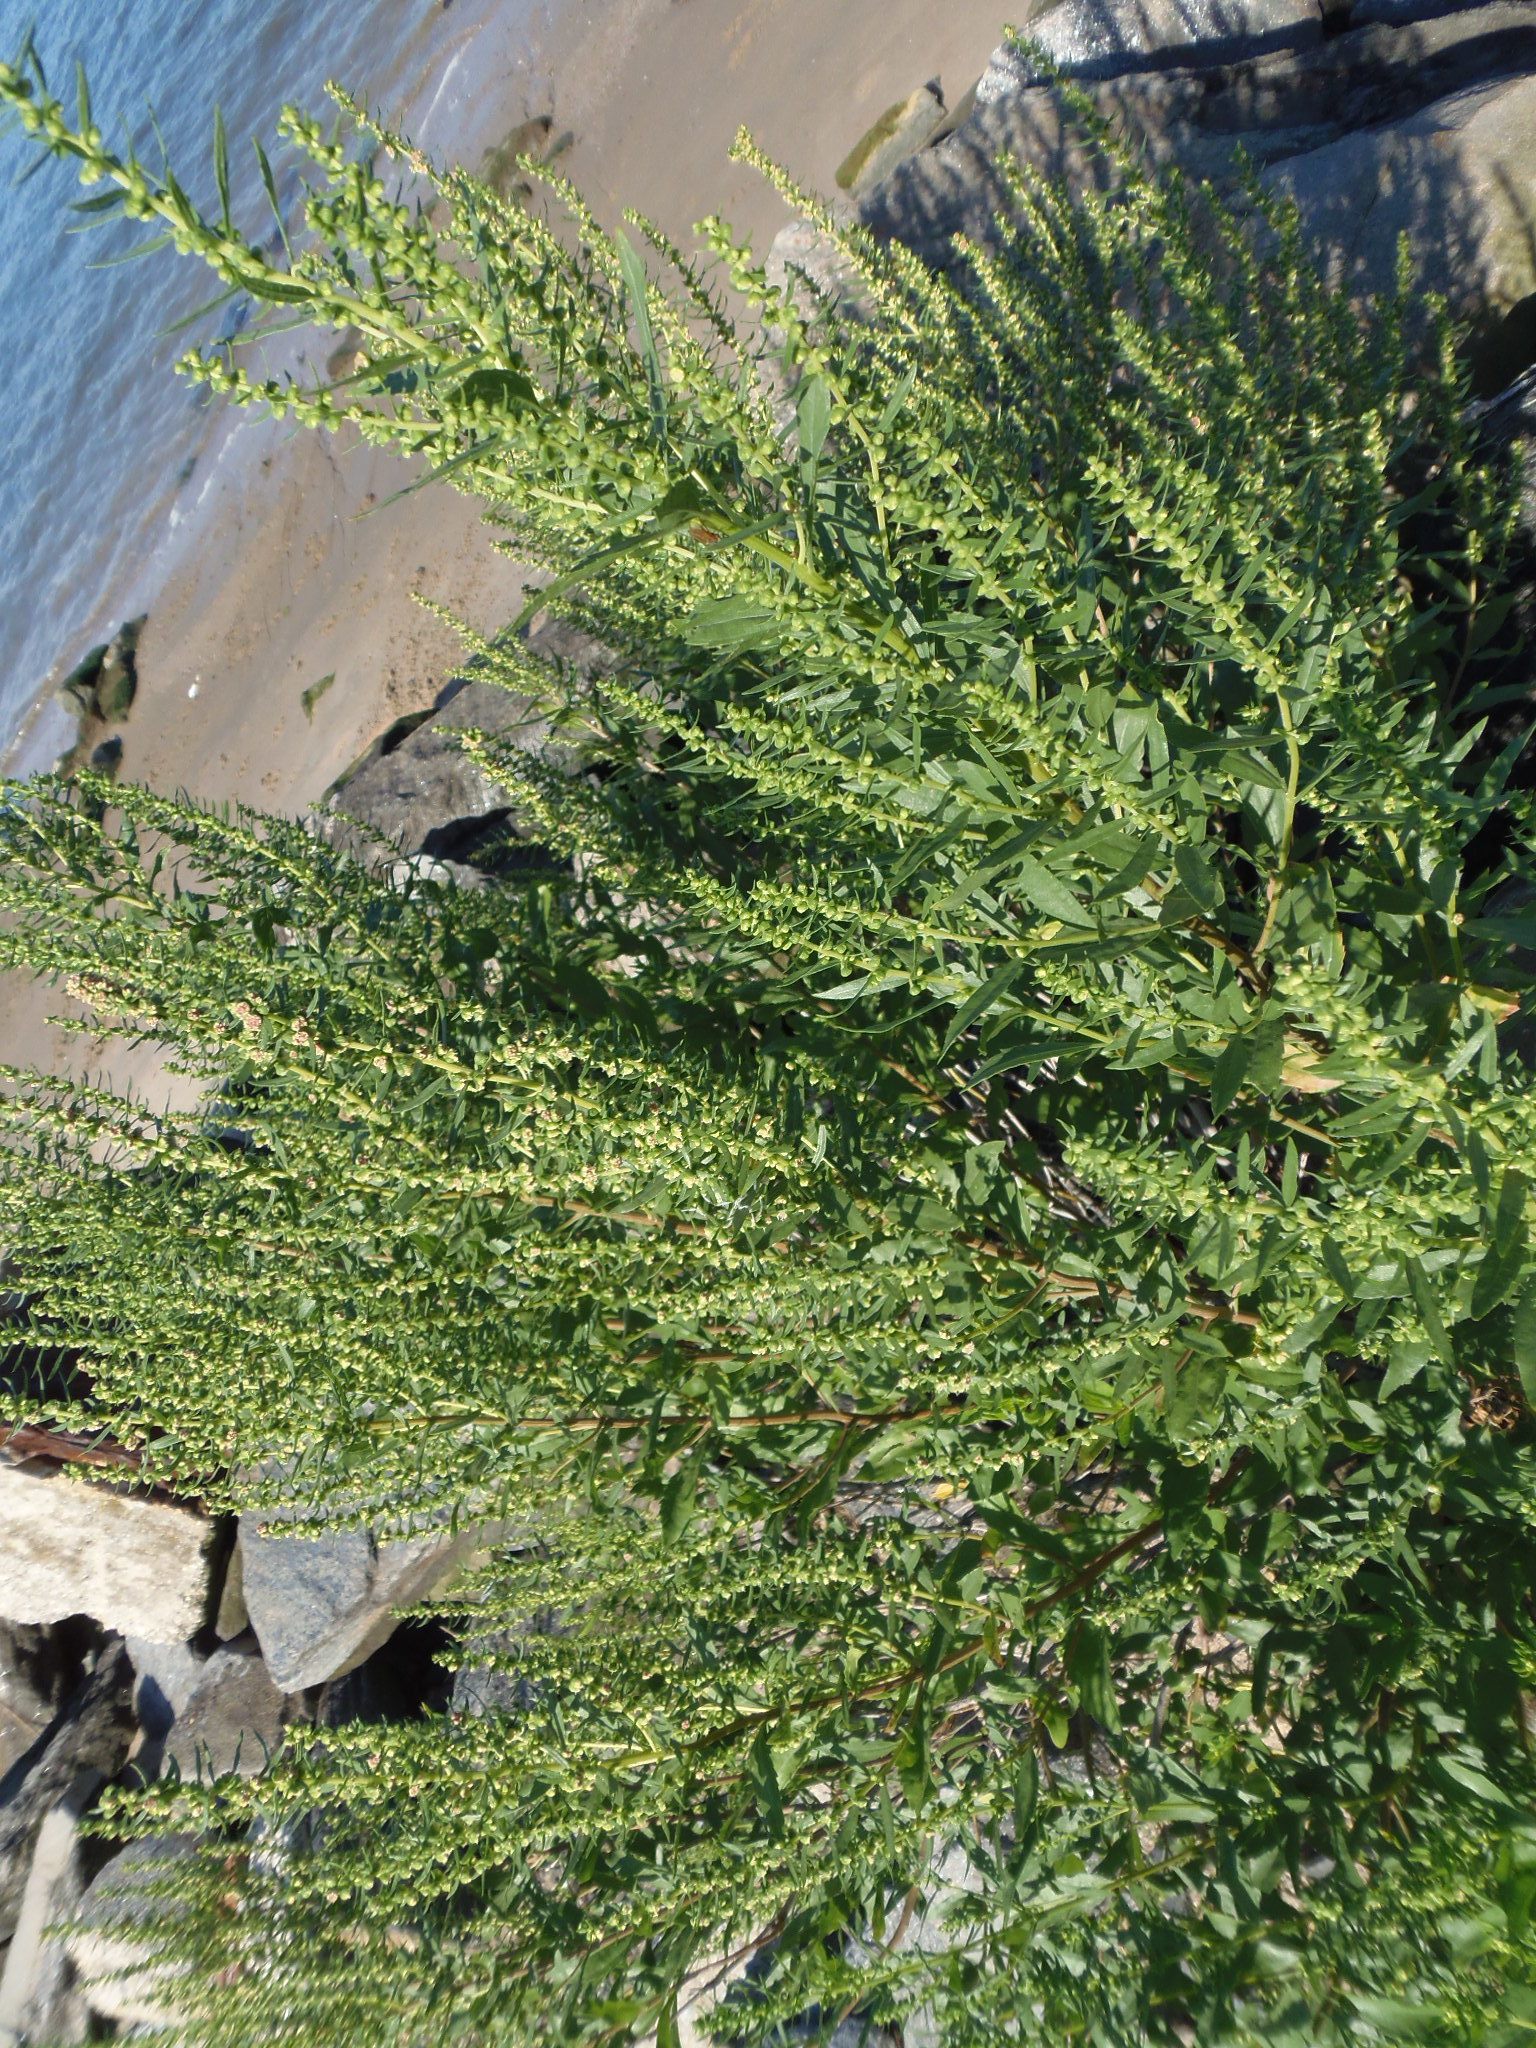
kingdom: Plantae
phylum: Tracheophyta
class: Magnoliopsida
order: Asterales
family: Asteraceae
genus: Iva
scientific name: Iva frutescens
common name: Big-leaved marsh-elder
